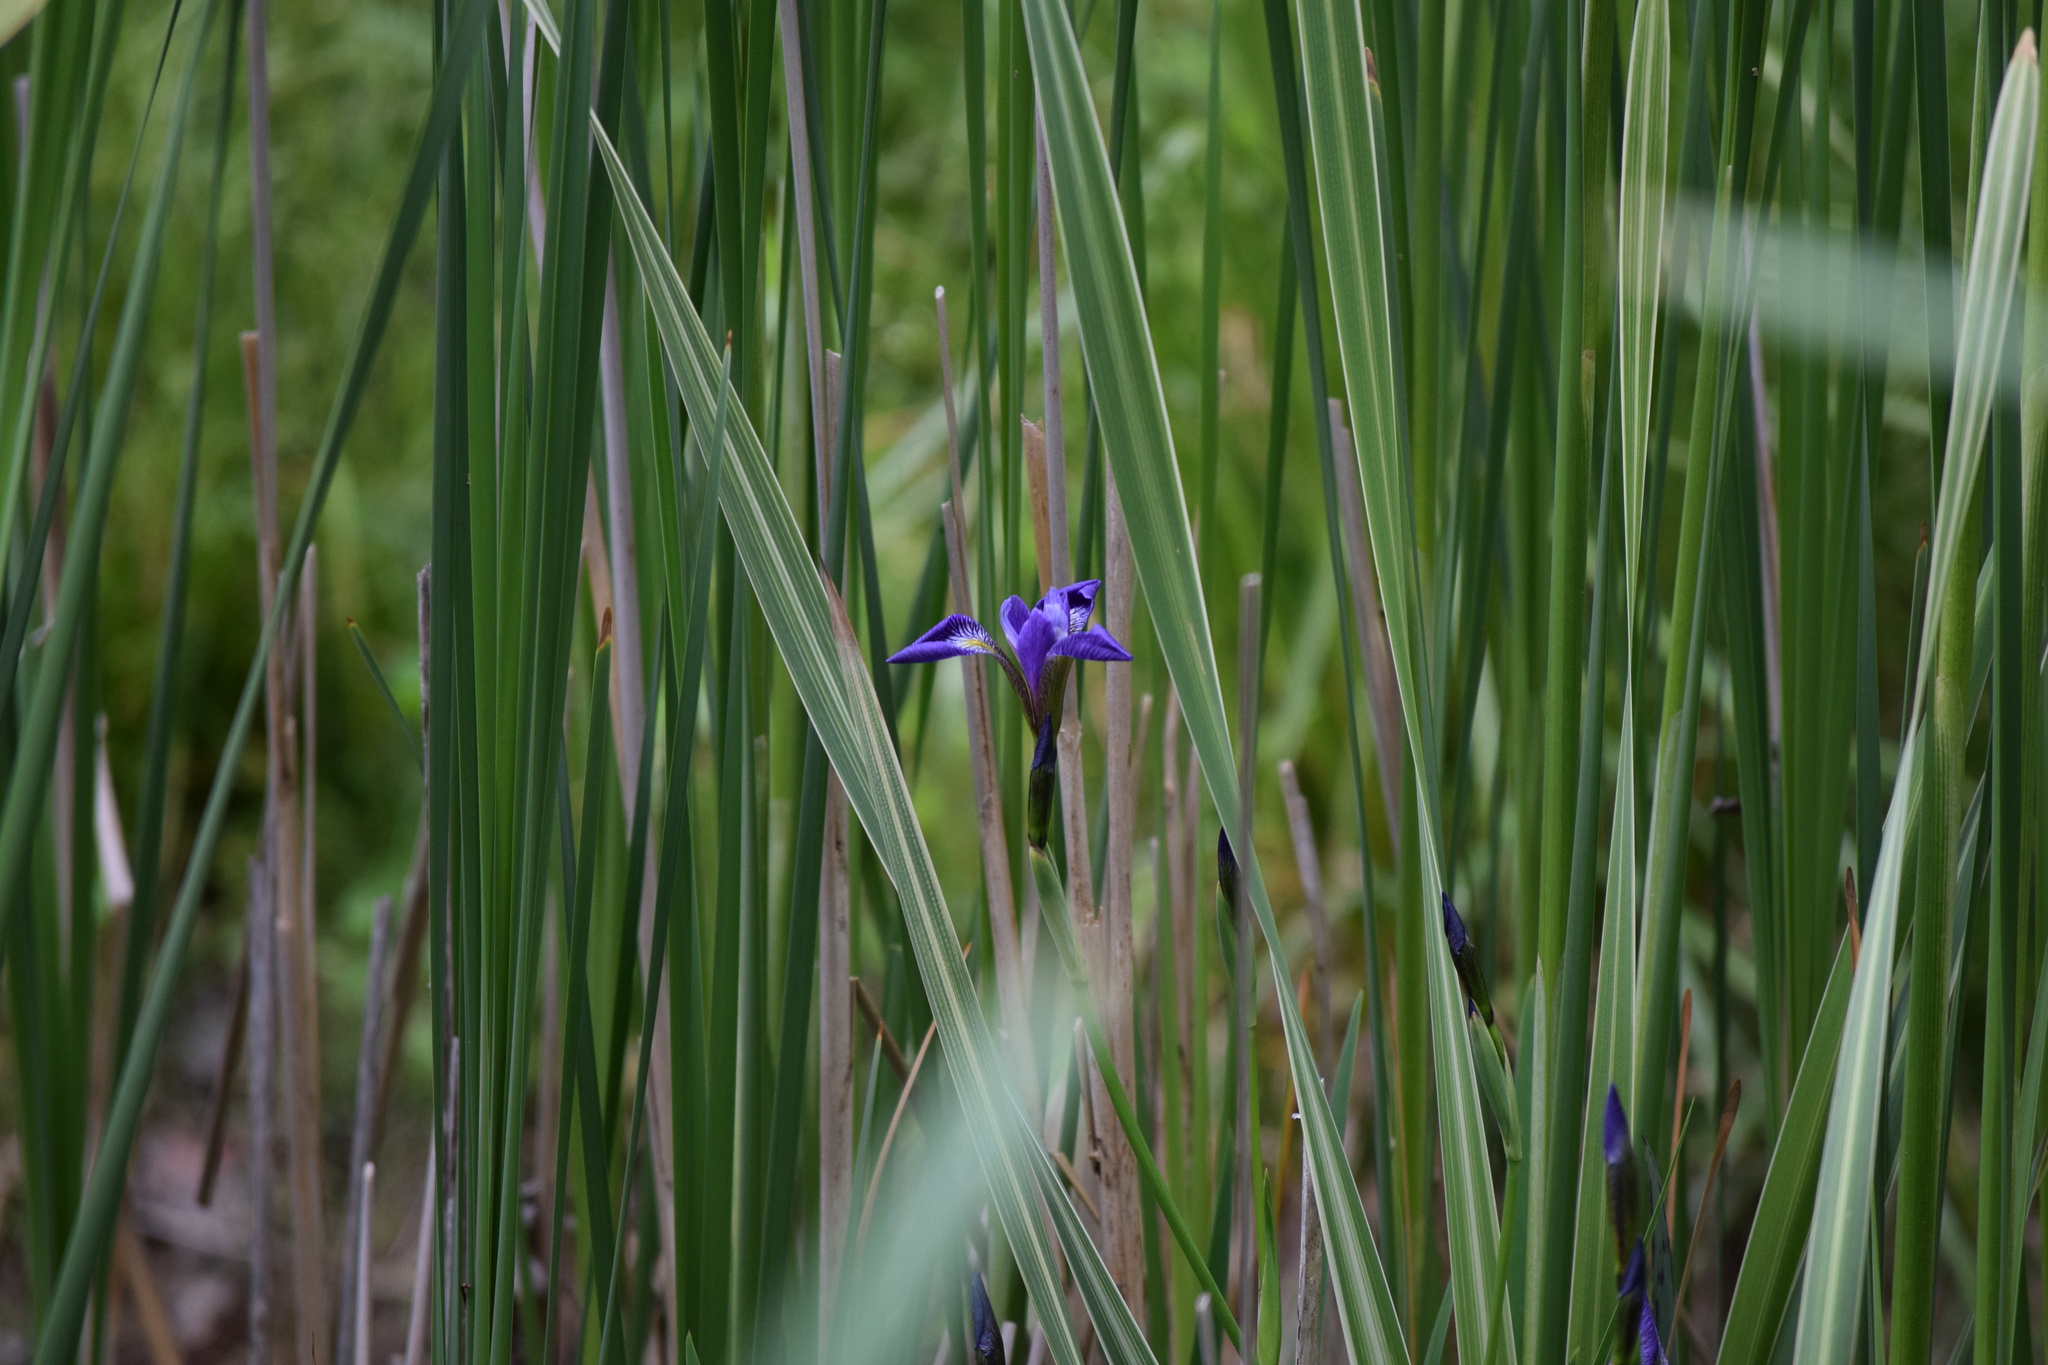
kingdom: Plantae
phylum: Tracheophyta
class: Liliopsida
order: Asparagales
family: Iridaceae
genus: Iris
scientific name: Iris versicolor
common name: Purple iris
